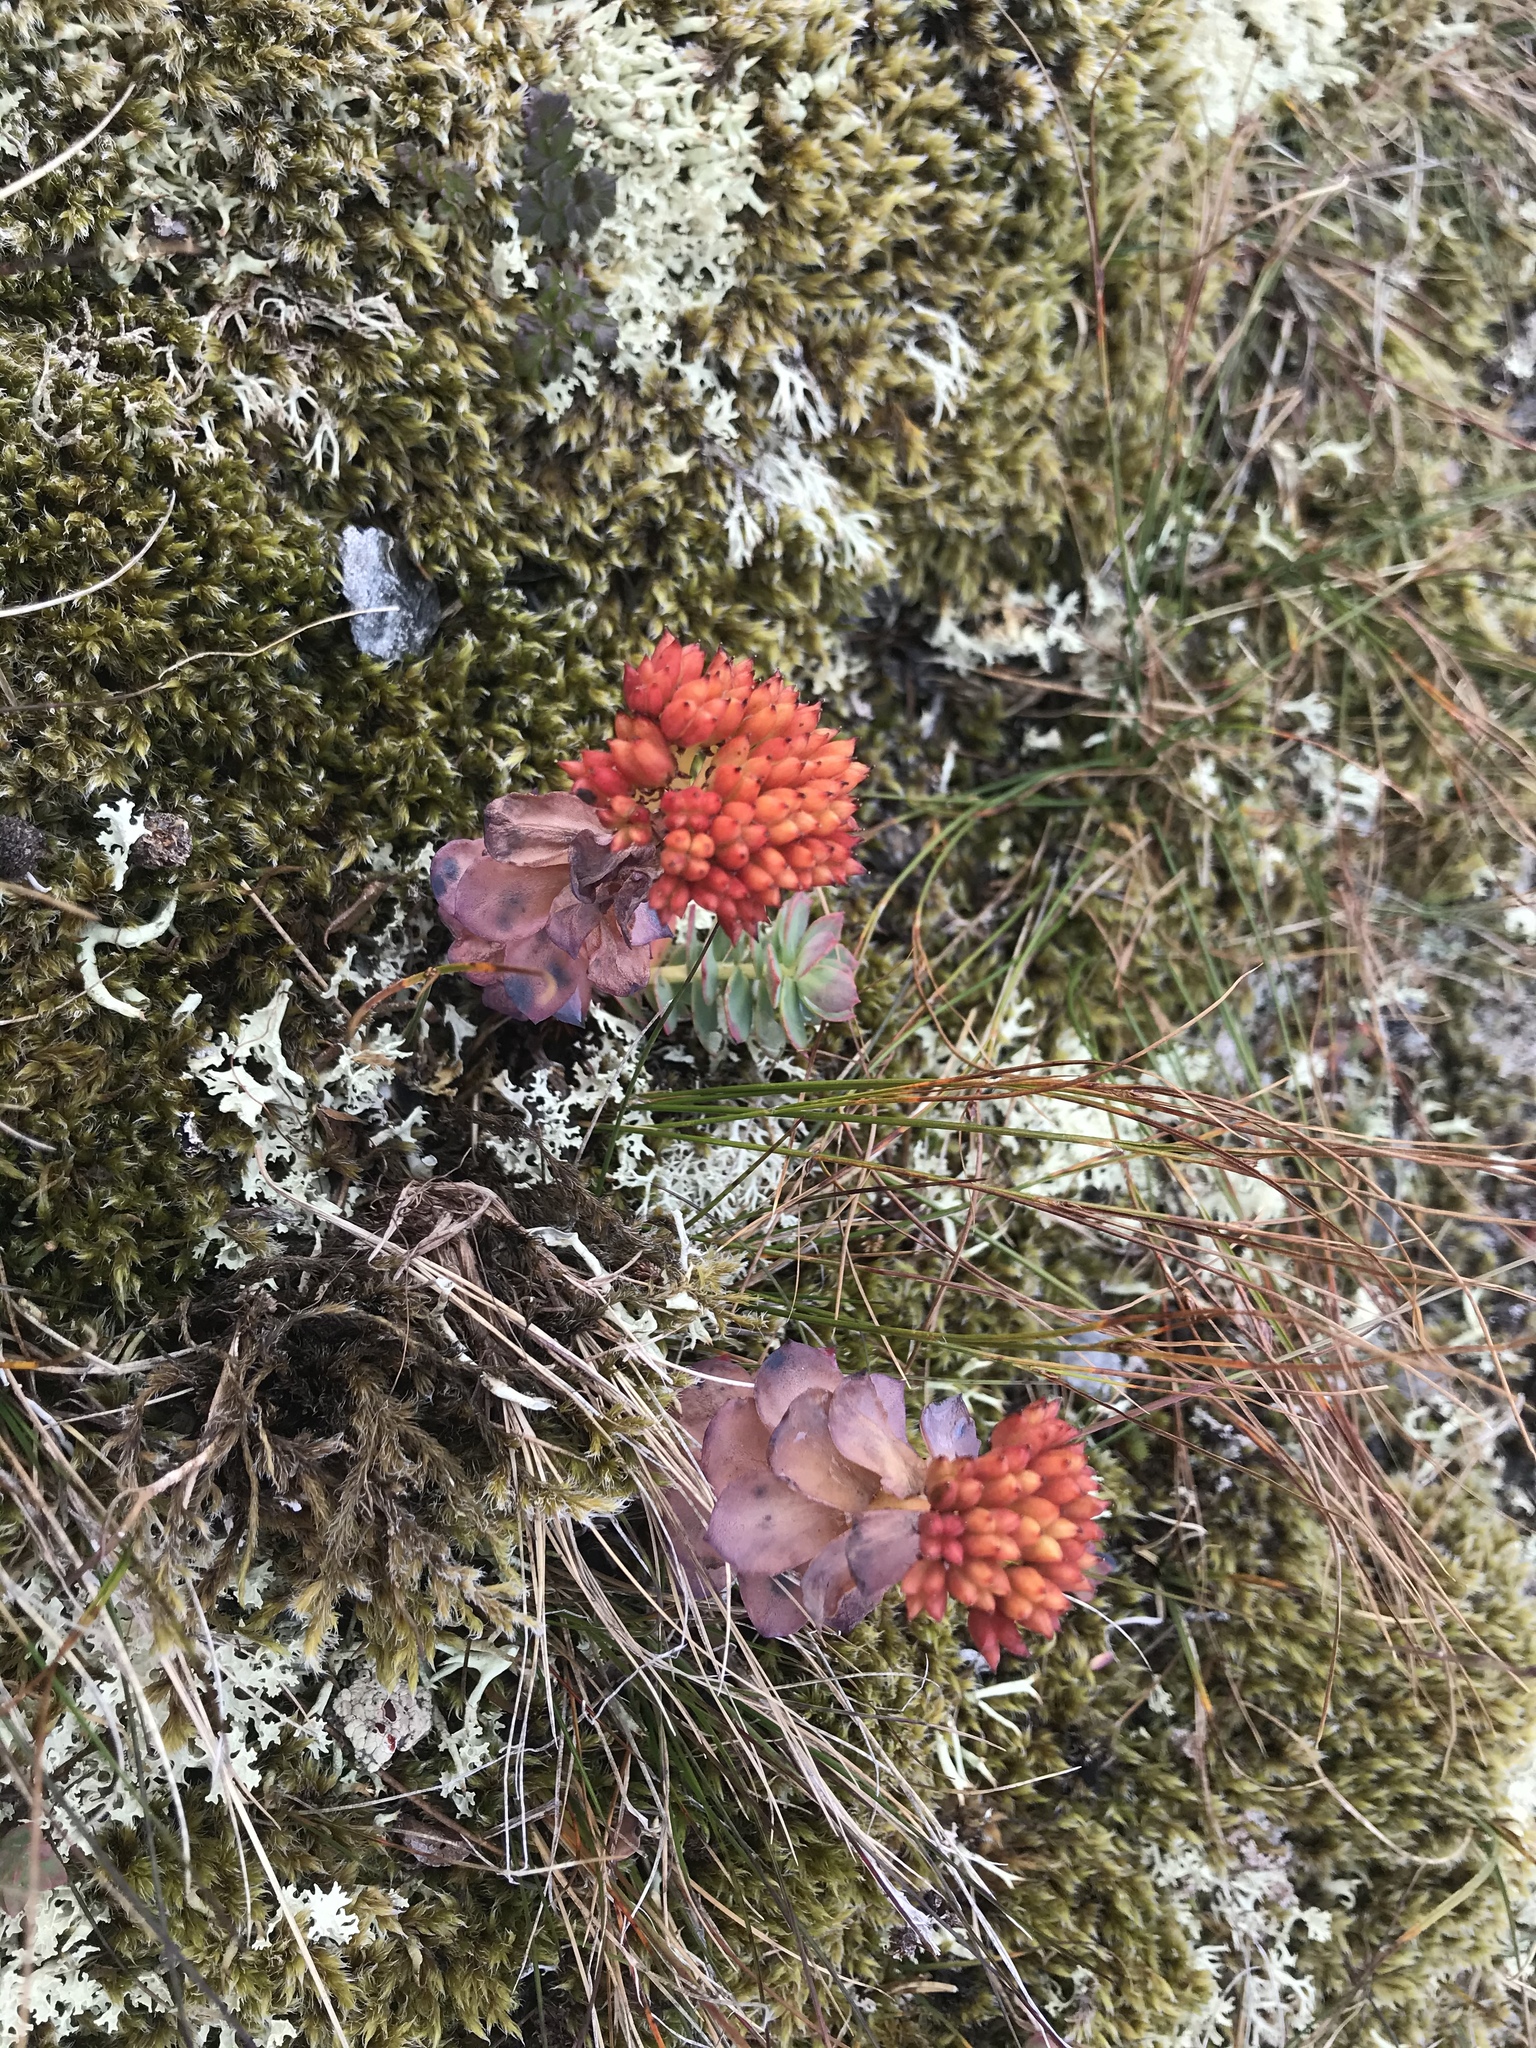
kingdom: Plantae
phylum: Tracheophyta
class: Magnoliopsida
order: Saxifragales
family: Crassulaceae
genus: Rhodiola
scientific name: Rhodiola rosea
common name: Roseroot
